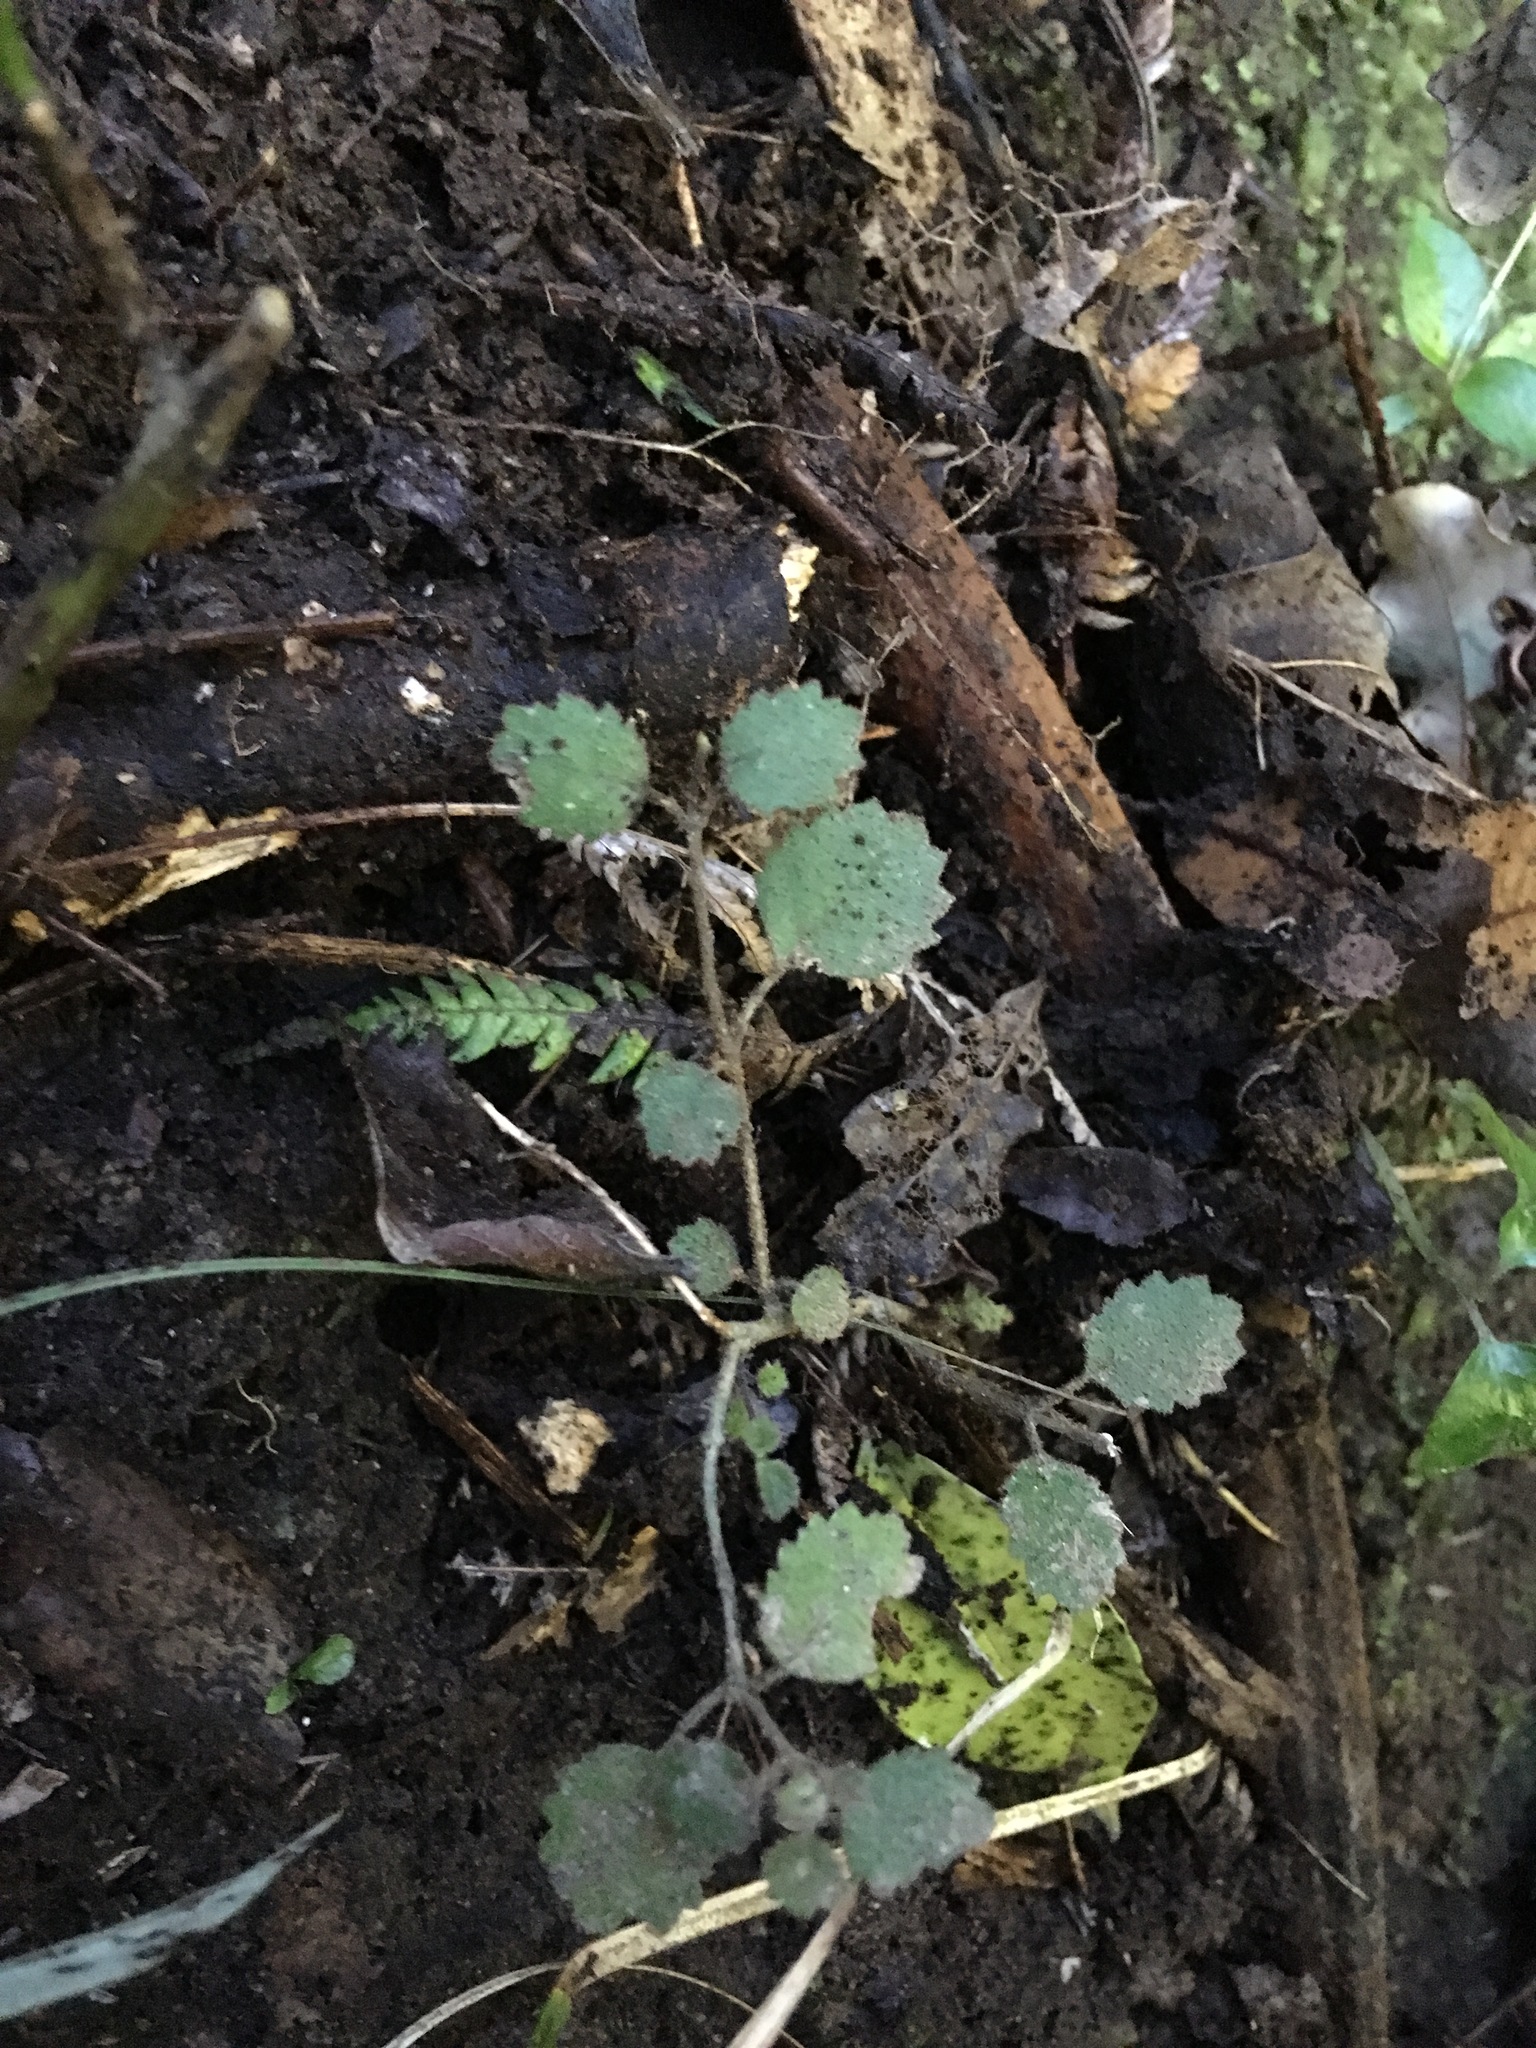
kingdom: Plantae
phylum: Tracheophyta
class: Magnoliopsida
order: Lamiales
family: Gesneriaceae
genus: Rhabdothamnus
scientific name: Rhabdothamnus solandri
